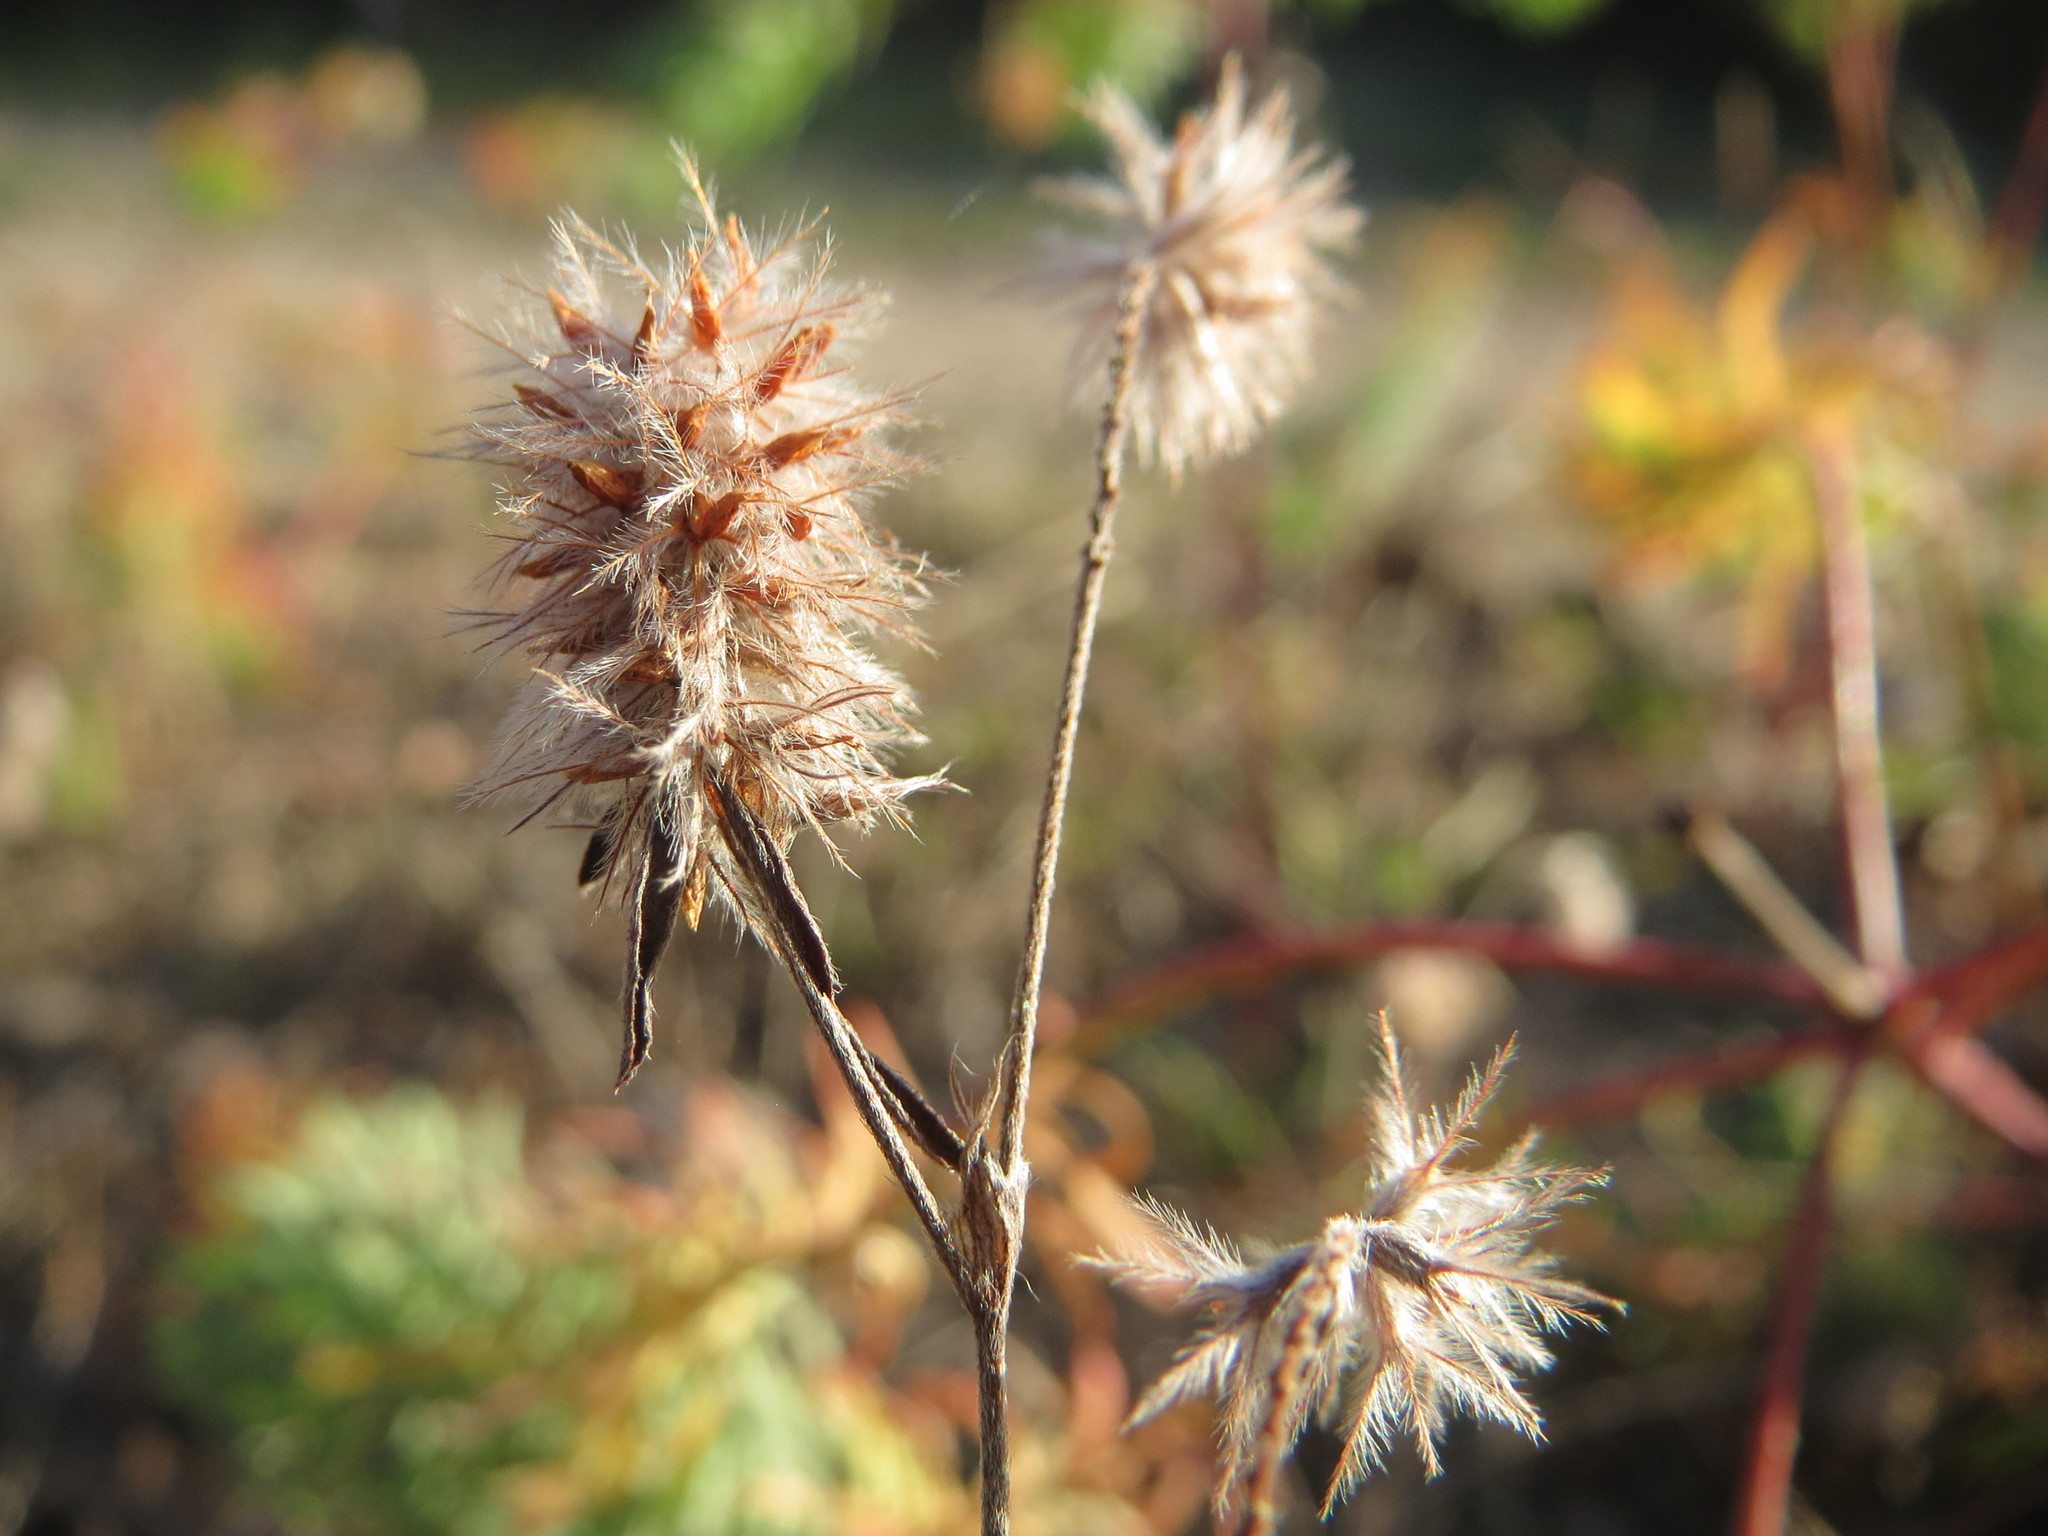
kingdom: Plantae
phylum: Tracheophyta
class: Magnoliopsida
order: Fabales
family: Fabaceae
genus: Trifolium
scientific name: Trifolium arvense
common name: Hare's-foot clover
